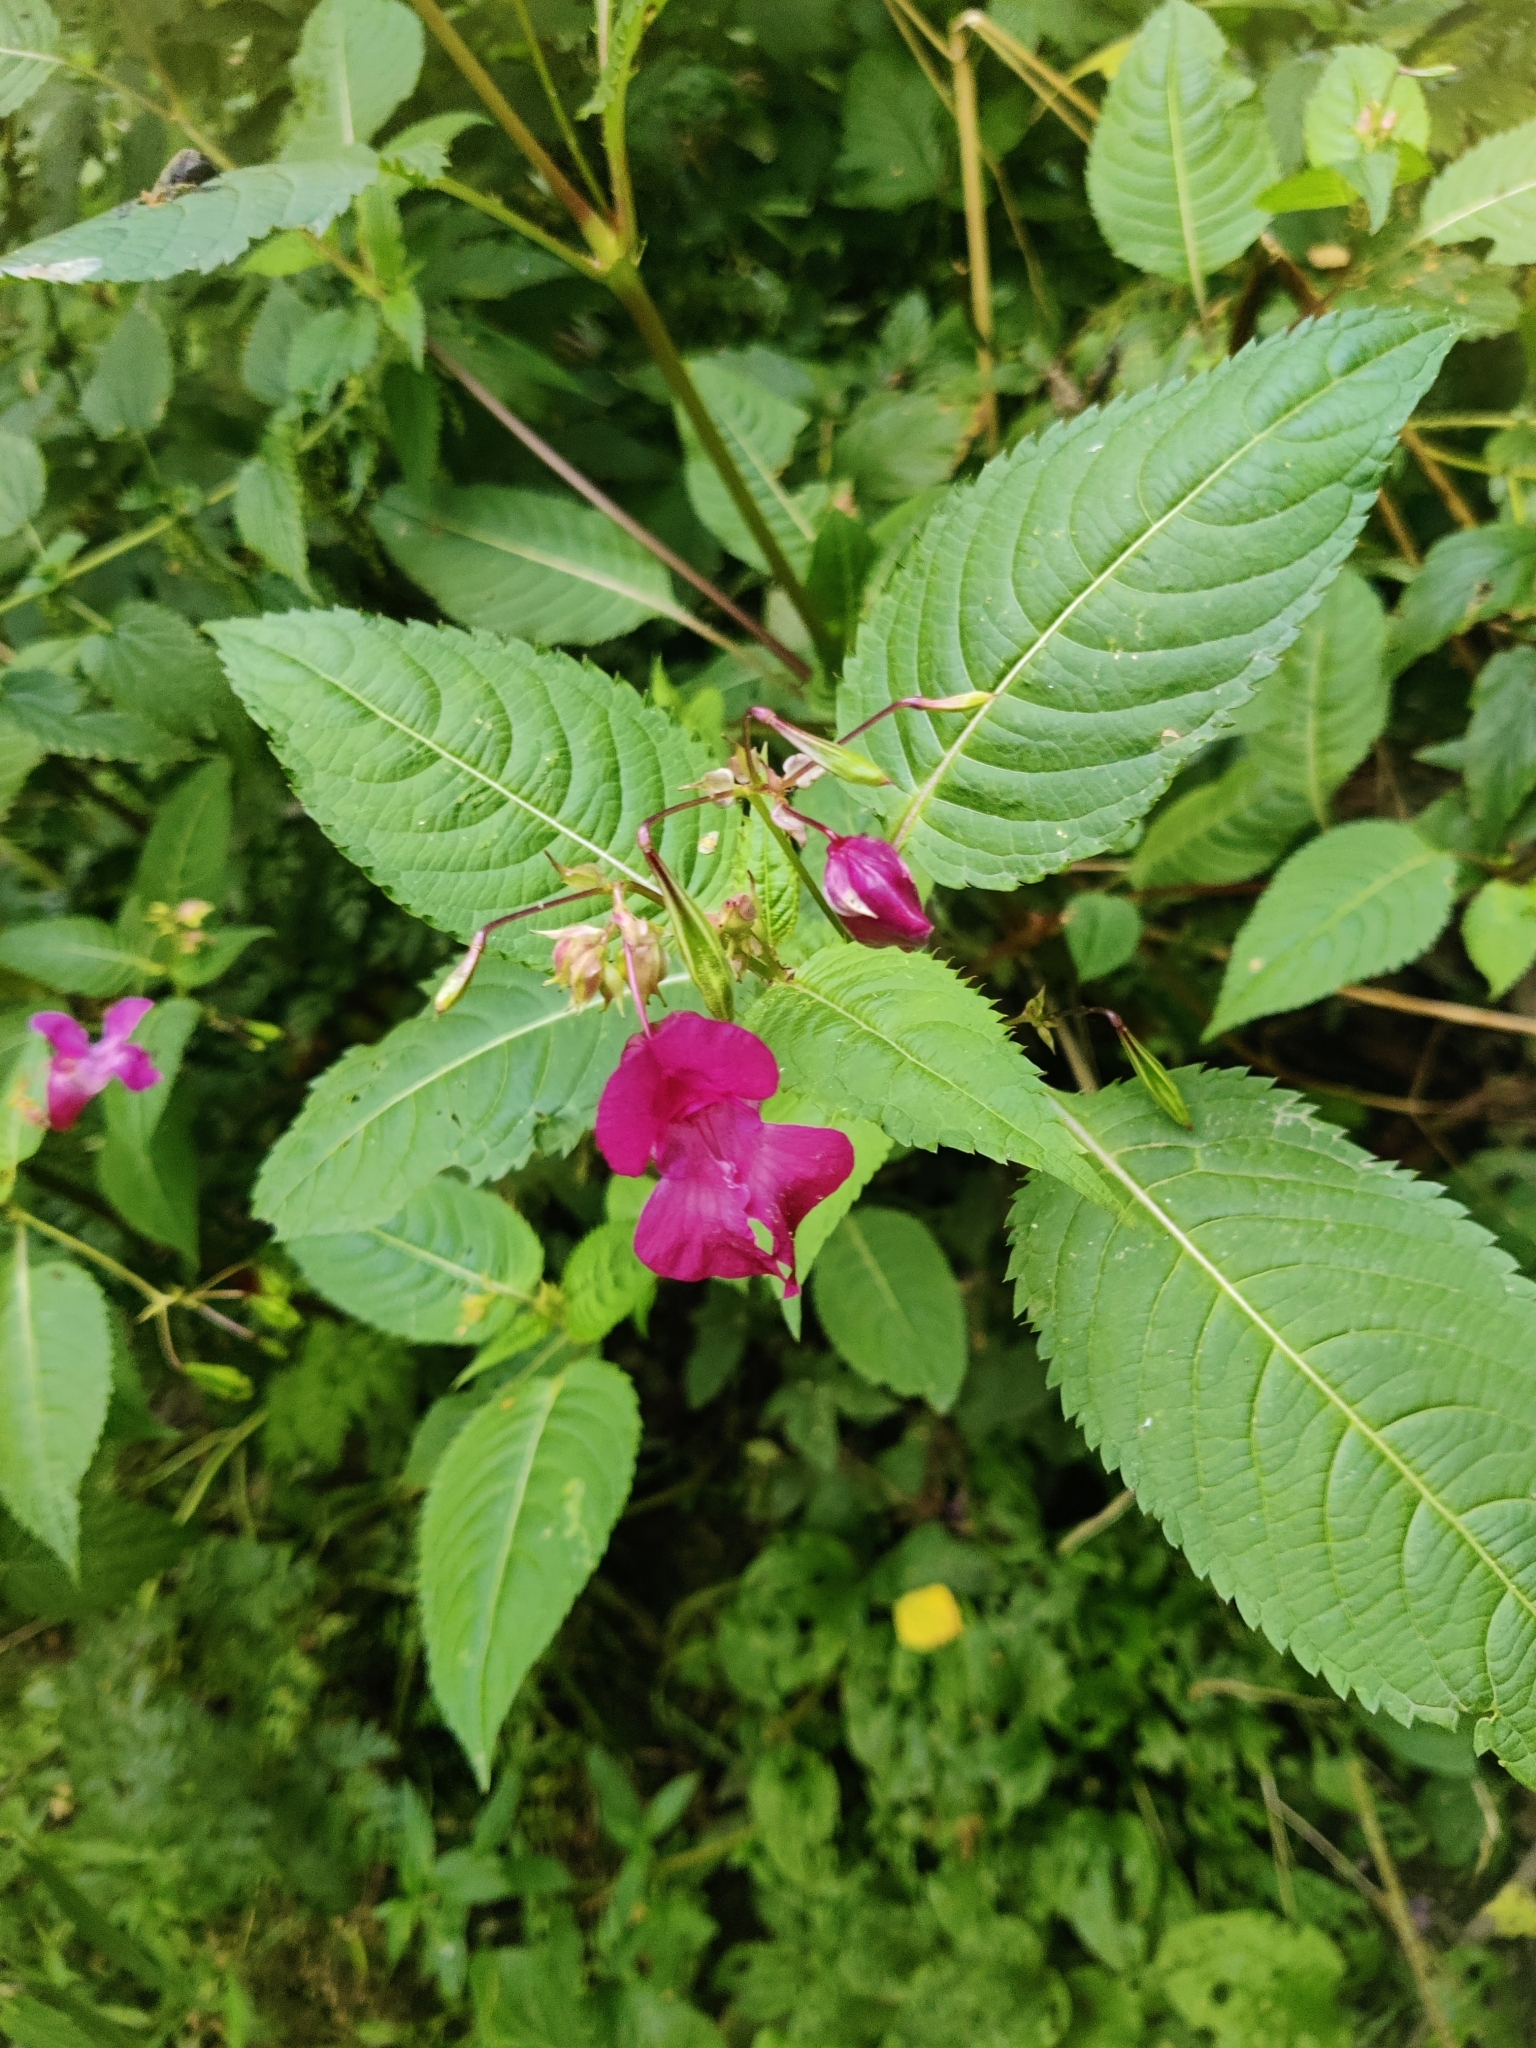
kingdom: Plantae
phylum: Tracheophyta
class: Magnoliopsida
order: Ericales
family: Balsaminaceae
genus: Impatiens
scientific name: Impatiens glandulifera
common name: Himalayan balsam
